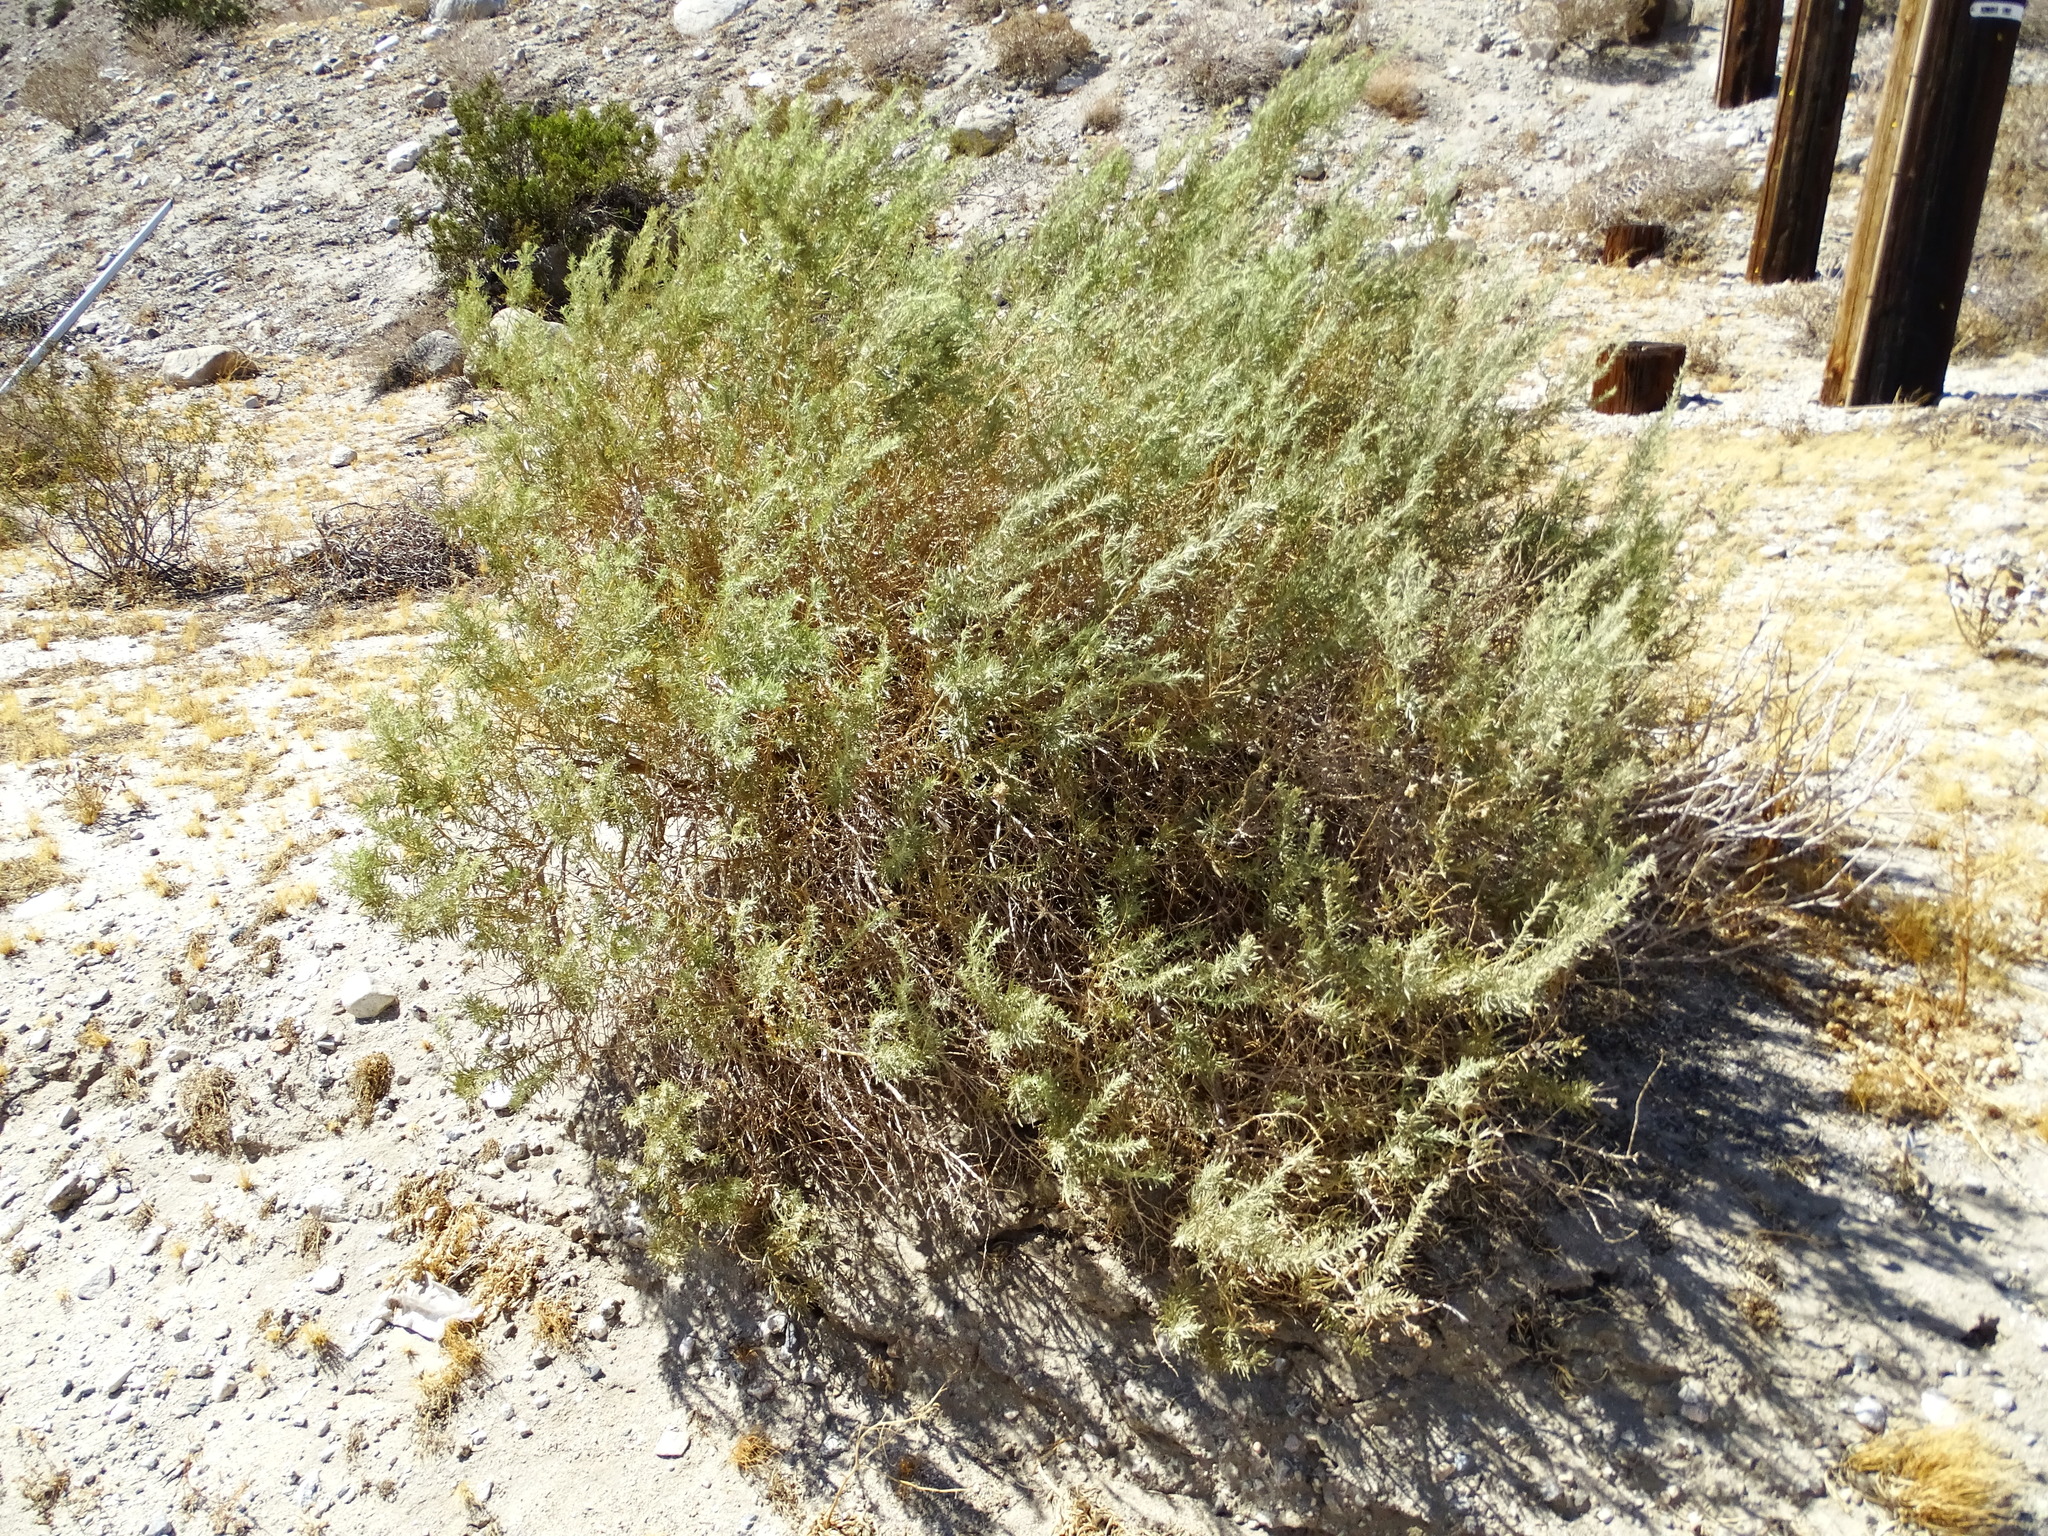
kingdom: Plantae
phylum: Tracheophyta
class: Magnoliopsida
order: Caryophyllales
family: Amaranthaceae
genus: Atriplex
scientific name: Atriplex canescens
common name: Four-wing saltbush
